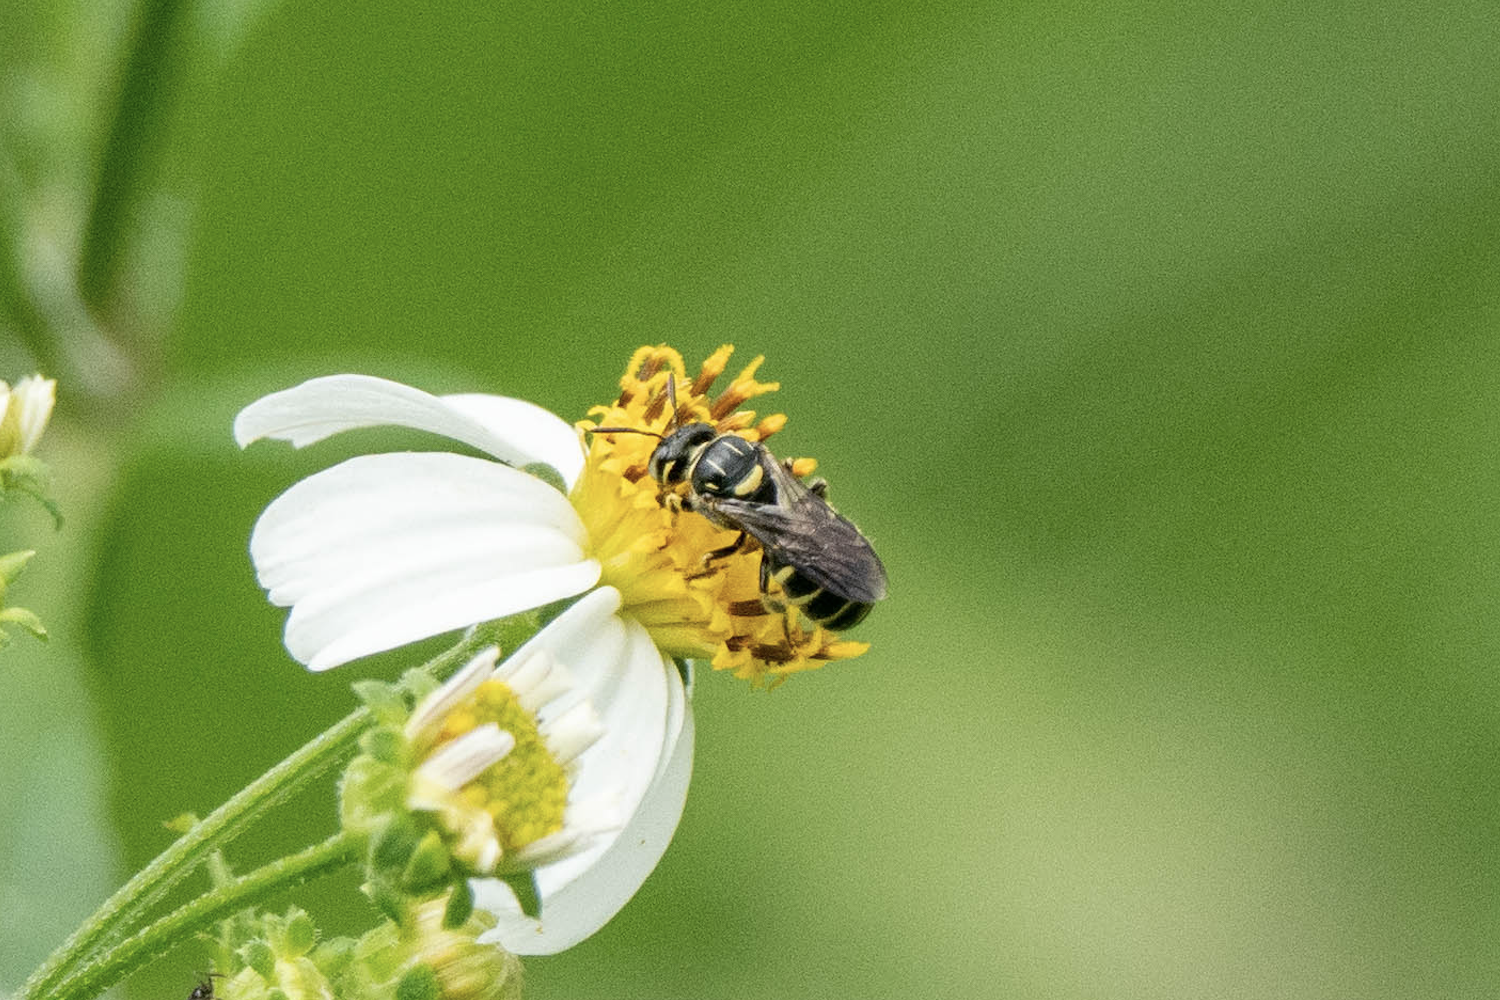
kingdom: Animalia
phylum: Arthropoda
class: Insecta
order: Hymenoptera
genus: Ceratinidia
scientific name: Ceratinidia
